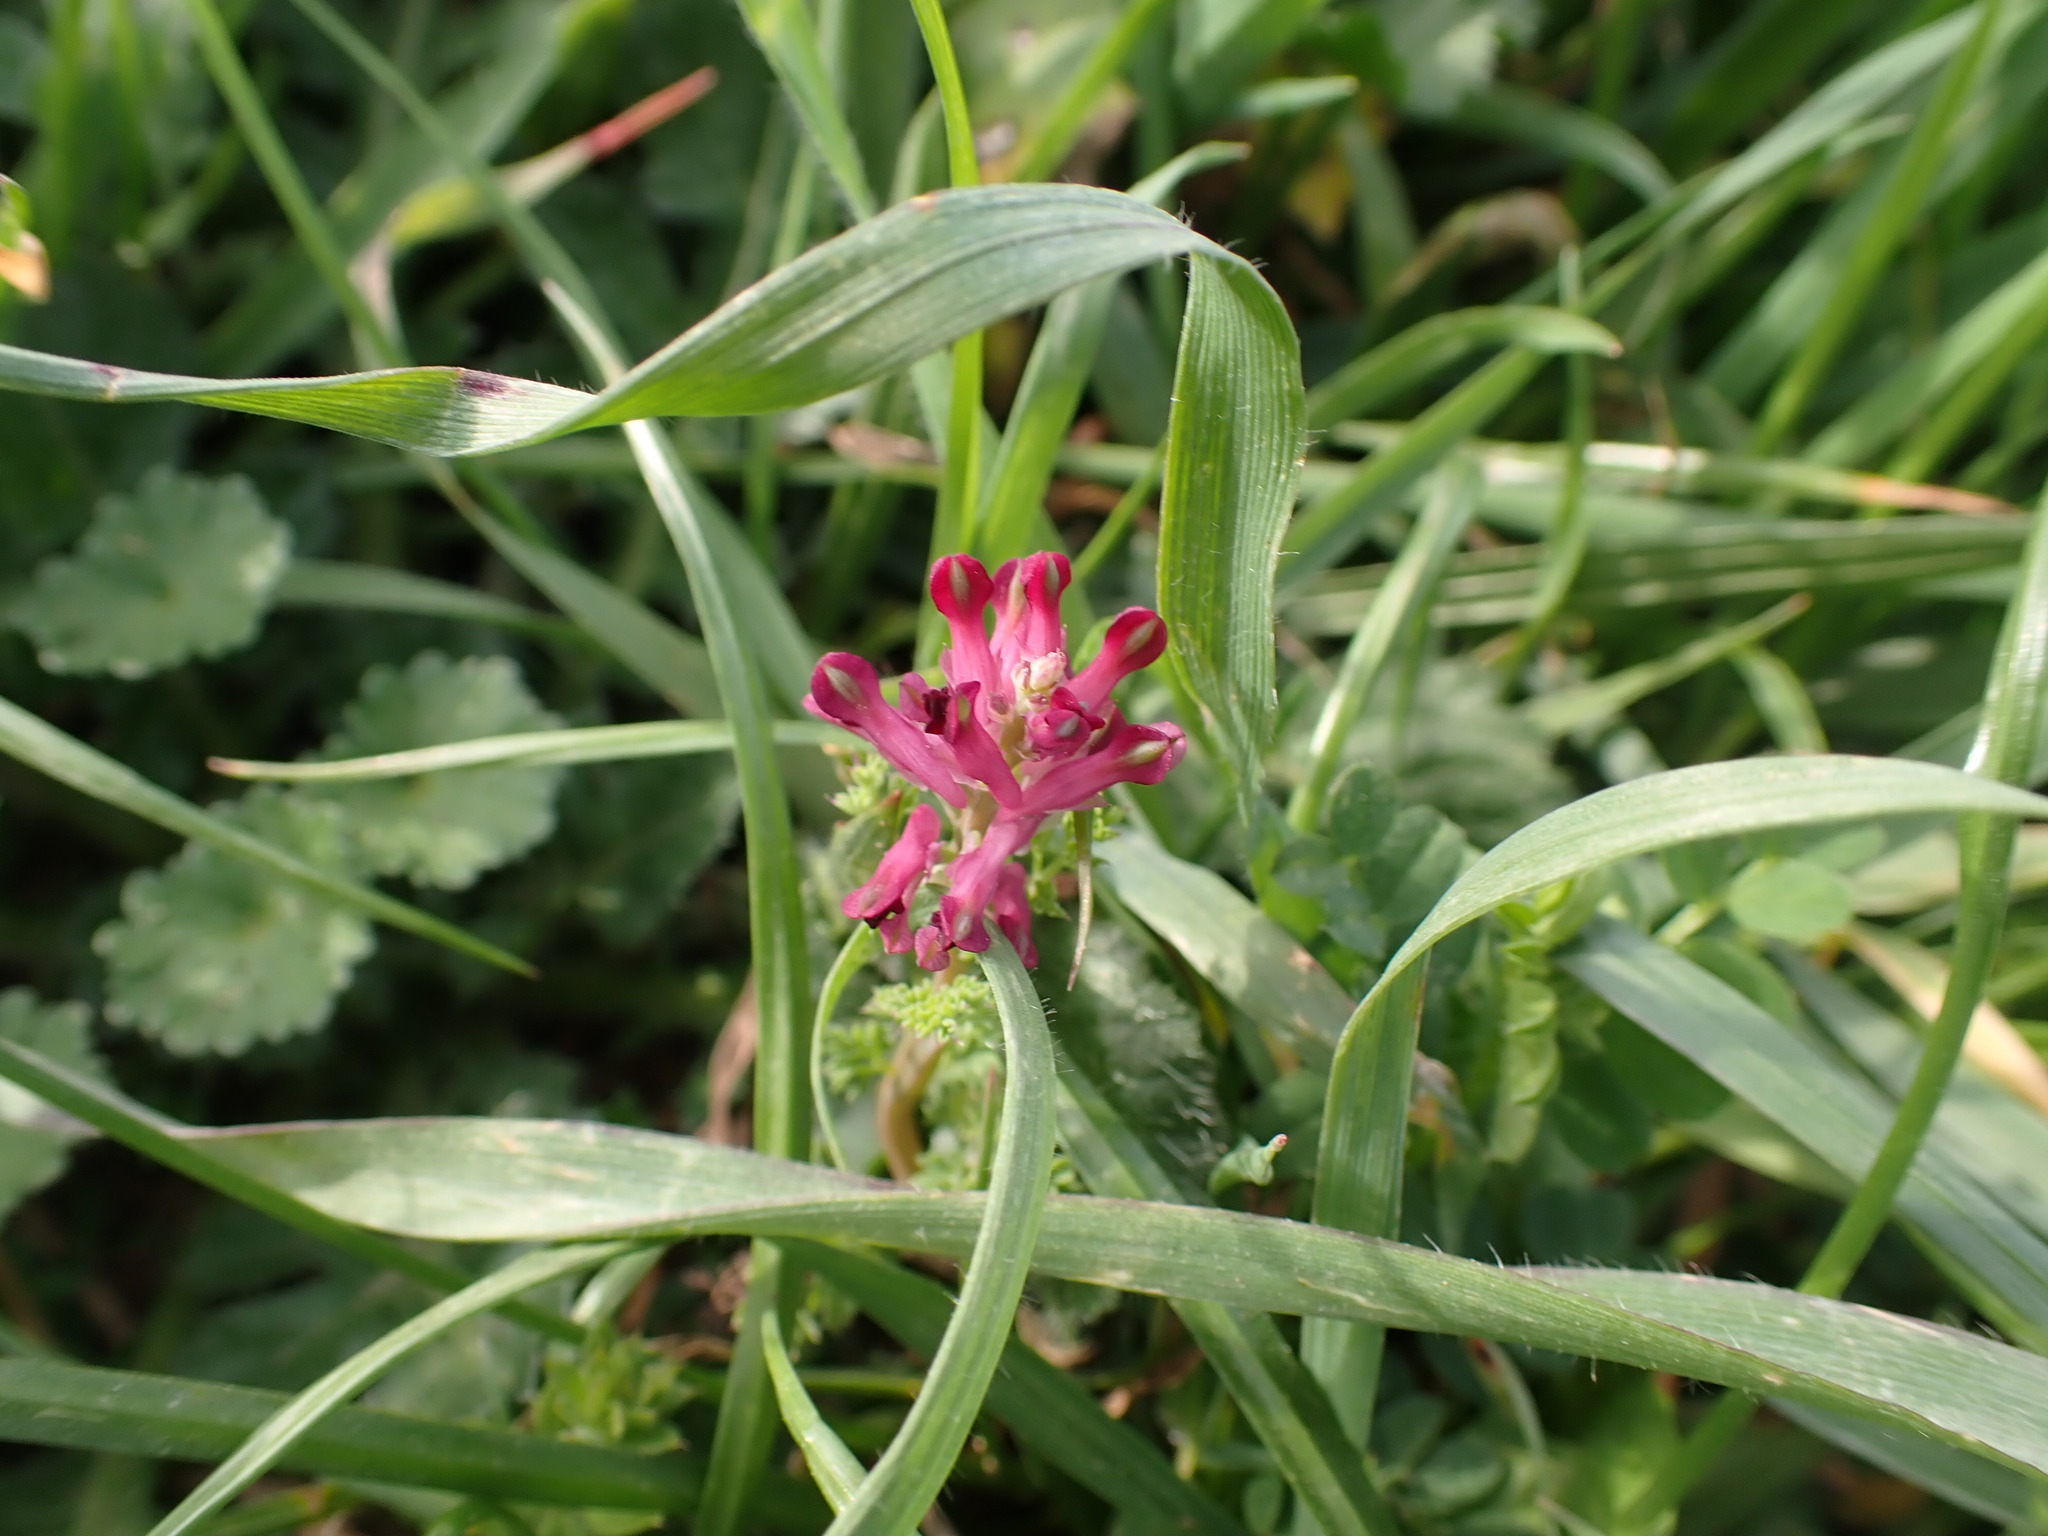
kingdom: Plantae
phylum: Tracheophyta
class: Magnoliopsida
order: Ranunculales
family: Papaveraceae
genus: Fumaria
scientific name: Fumaria officinalis
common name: Common fumitory
